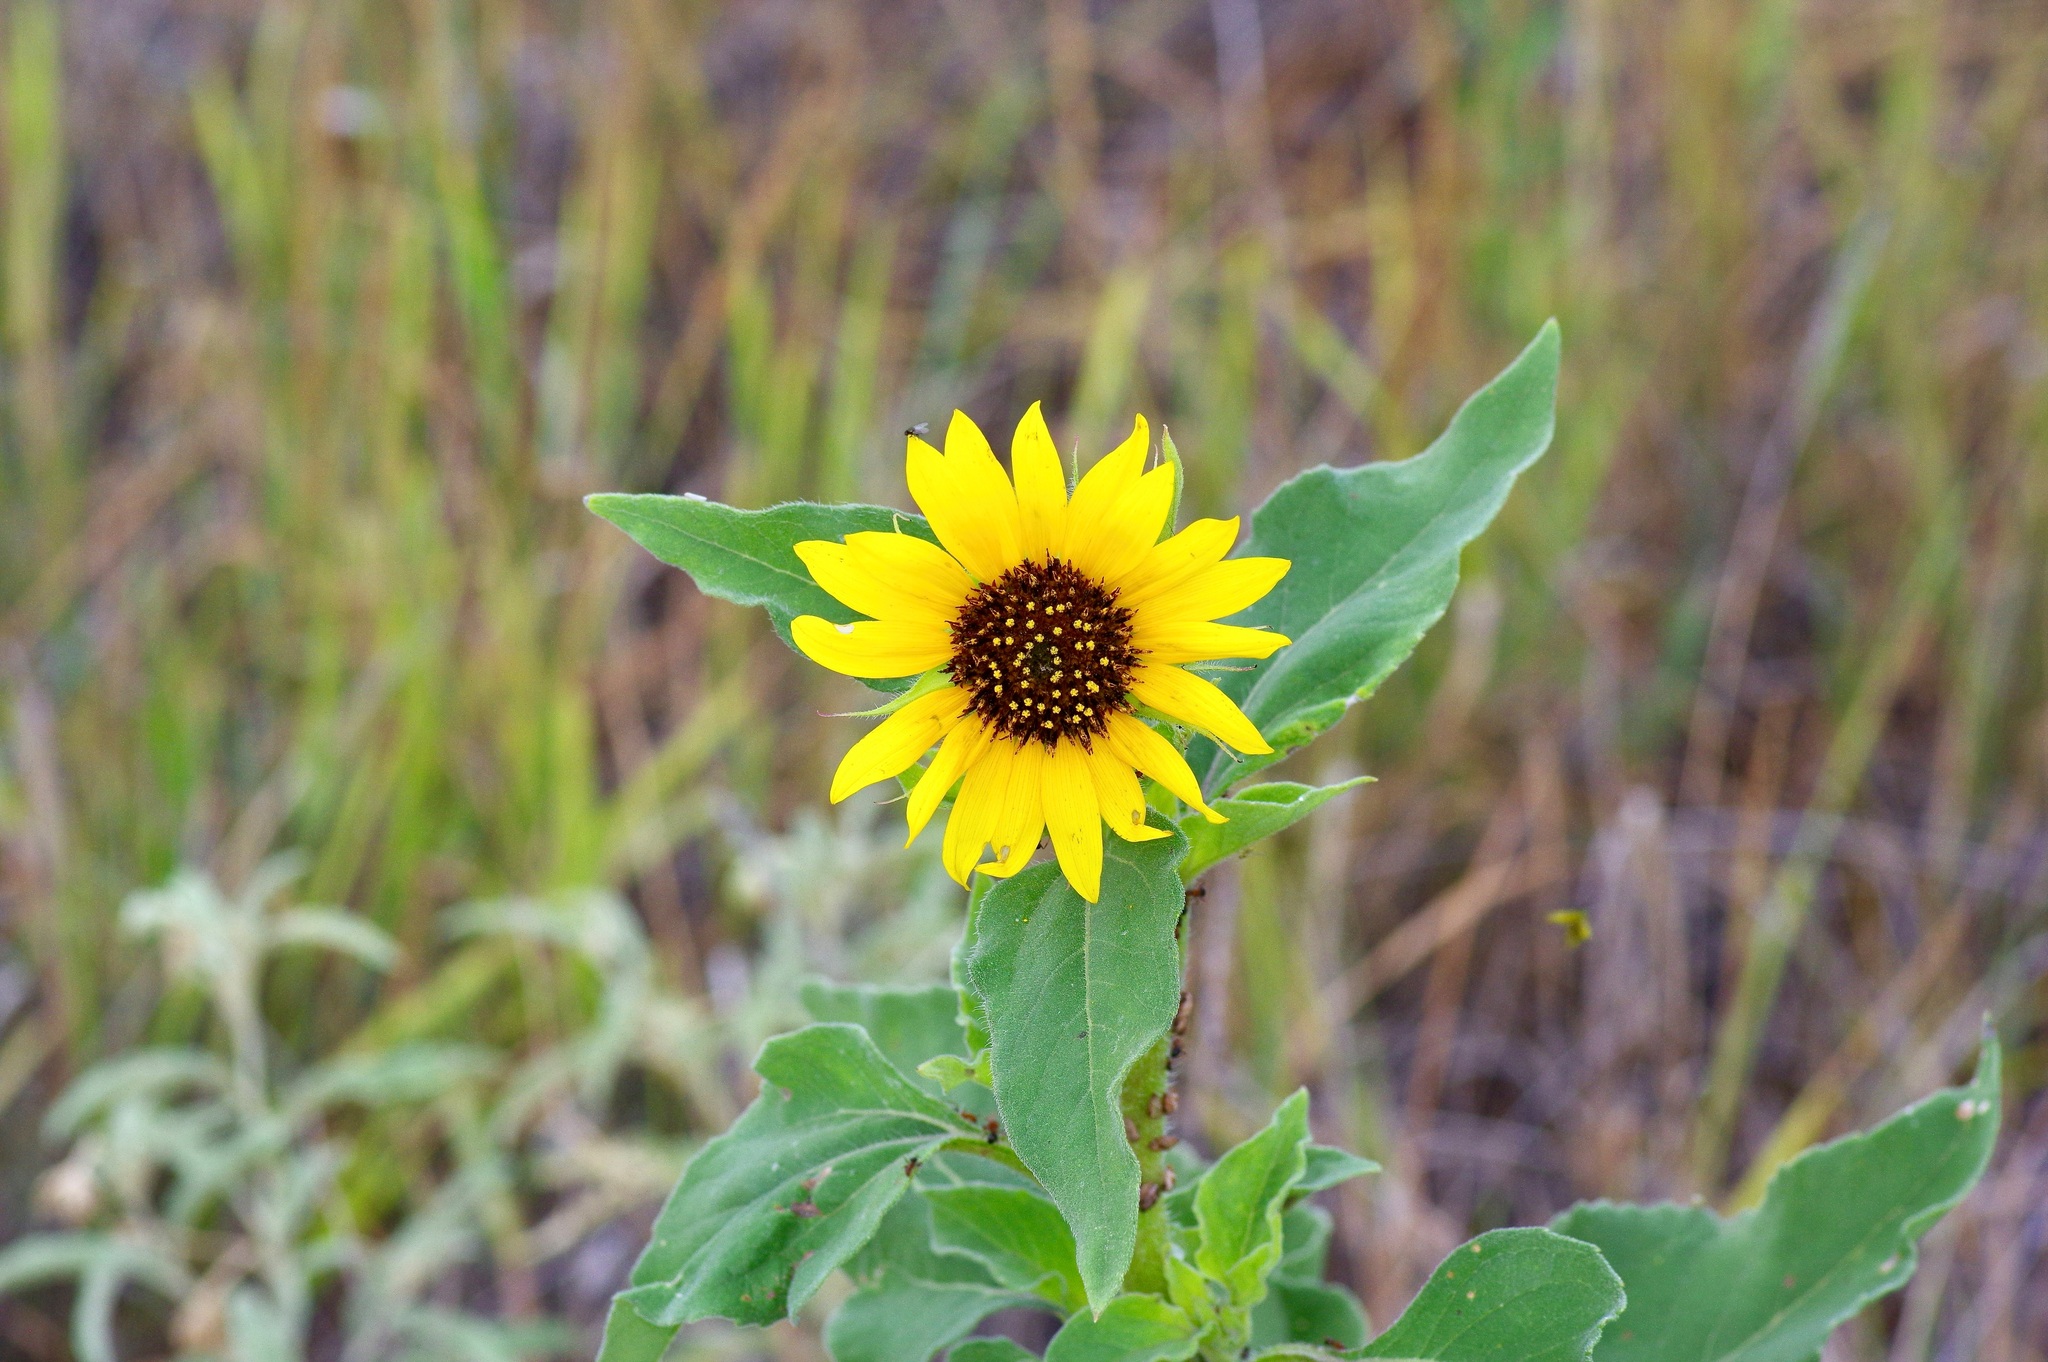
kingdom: Plantae
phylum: Tracheophyta
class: Magnoliopsida
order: Asterales
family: Asteraceae
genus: Helianthus
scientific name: Helianthus annuus
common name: Sunflower
